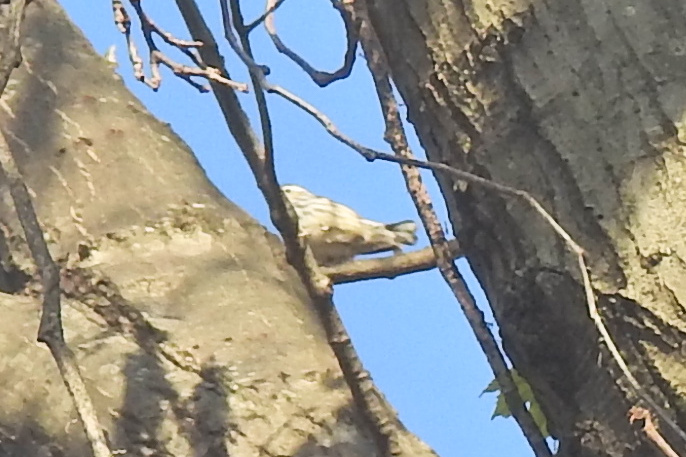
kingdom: Animalia
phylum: Chordata
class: Aves
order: Passeriformes
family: Parulidae
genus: Mniotilta
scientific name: Mniotilta varia
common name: Black-and-white warbler
